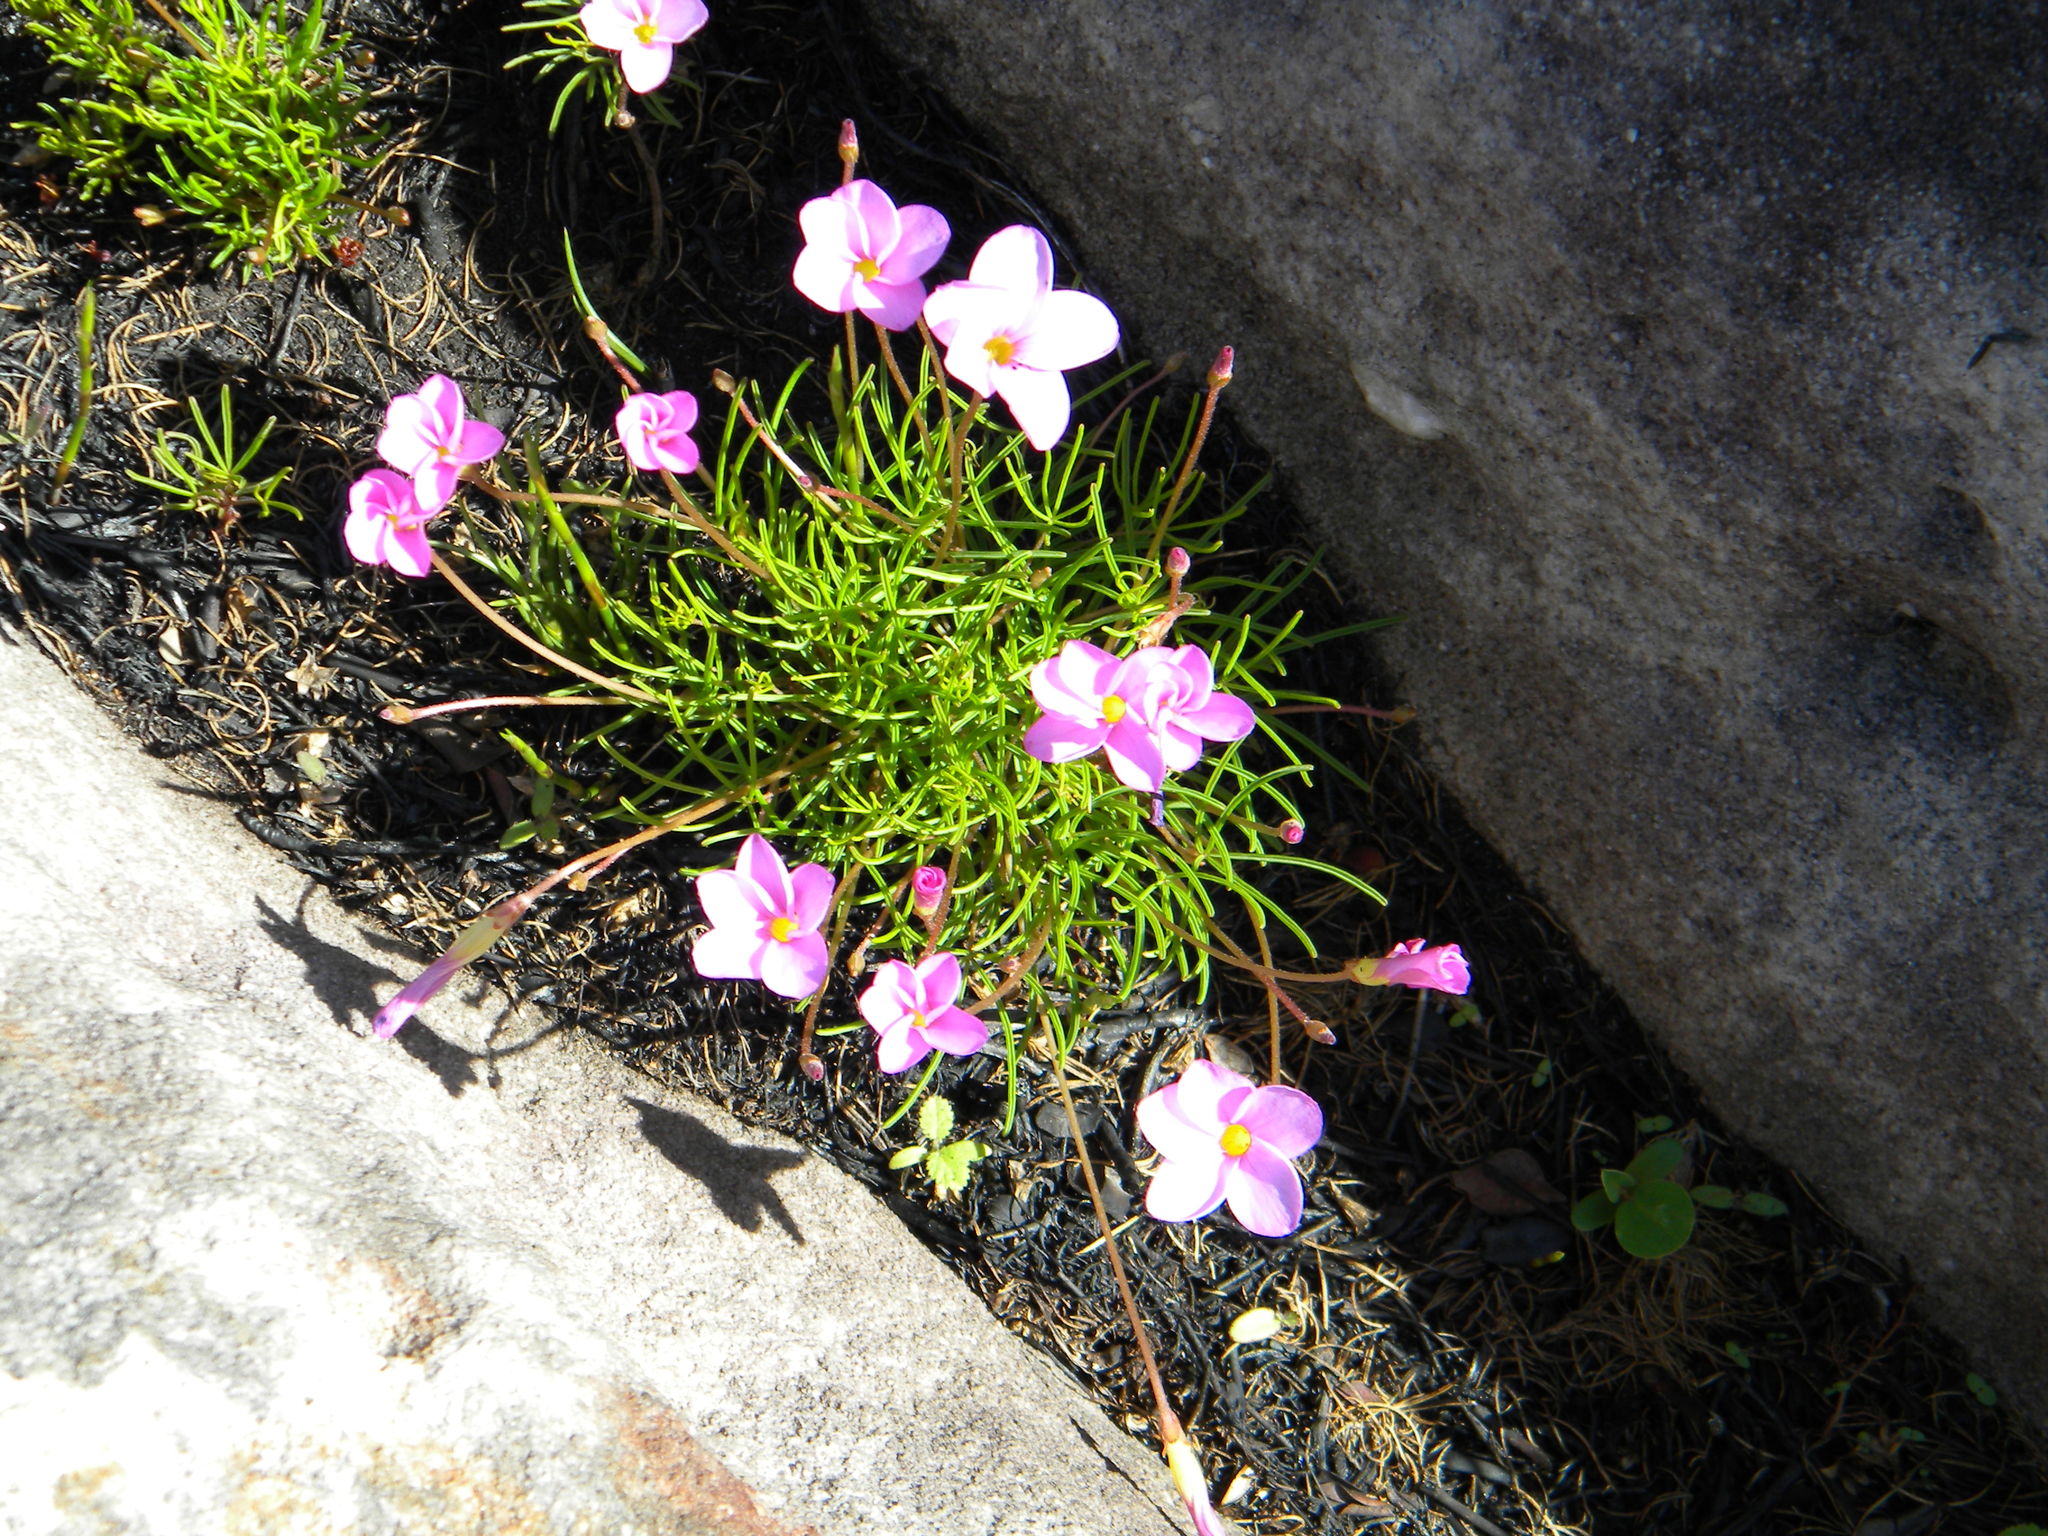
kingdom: Plantae
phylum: Tracheophyta
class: Magnoliopsida
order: Oxalidales
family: Oxalidaceae
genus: Oxalis
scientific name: Oxalis polyphylla
